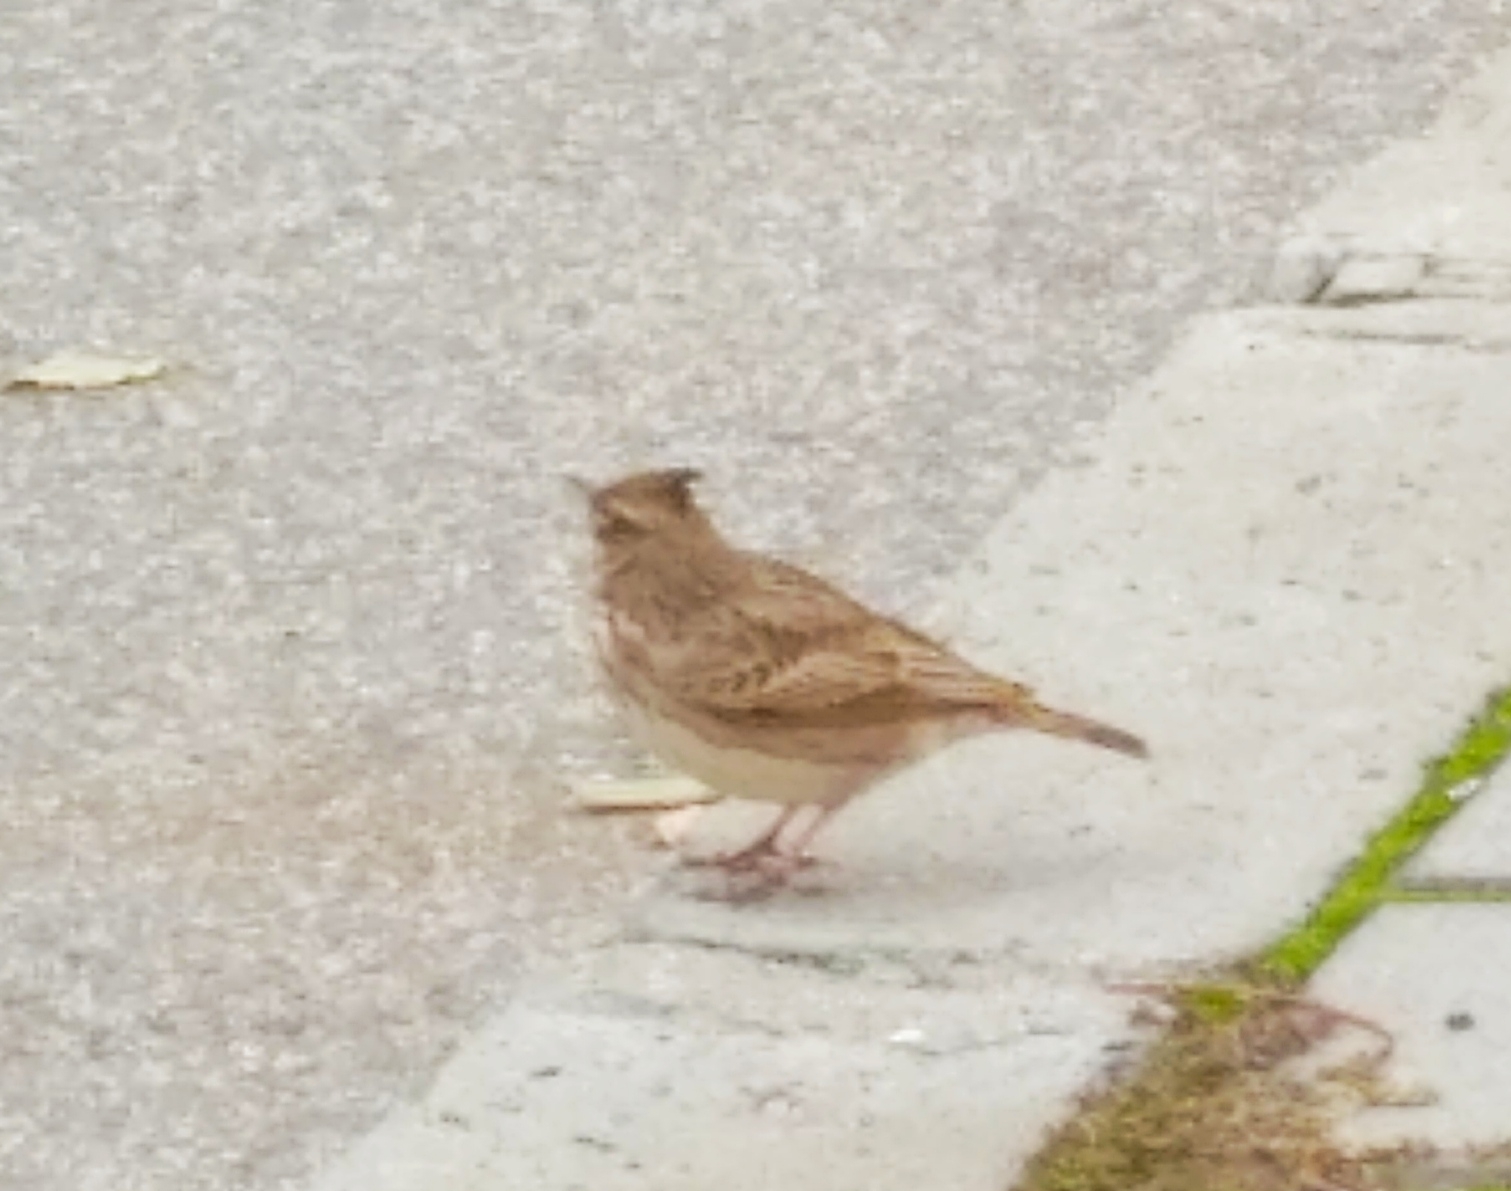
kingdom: Animalia
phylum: Chordata
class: Aves
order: Passeriformes
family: Alaudidae
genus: Galerida
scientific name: Galerida cristata
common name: Crested lark
